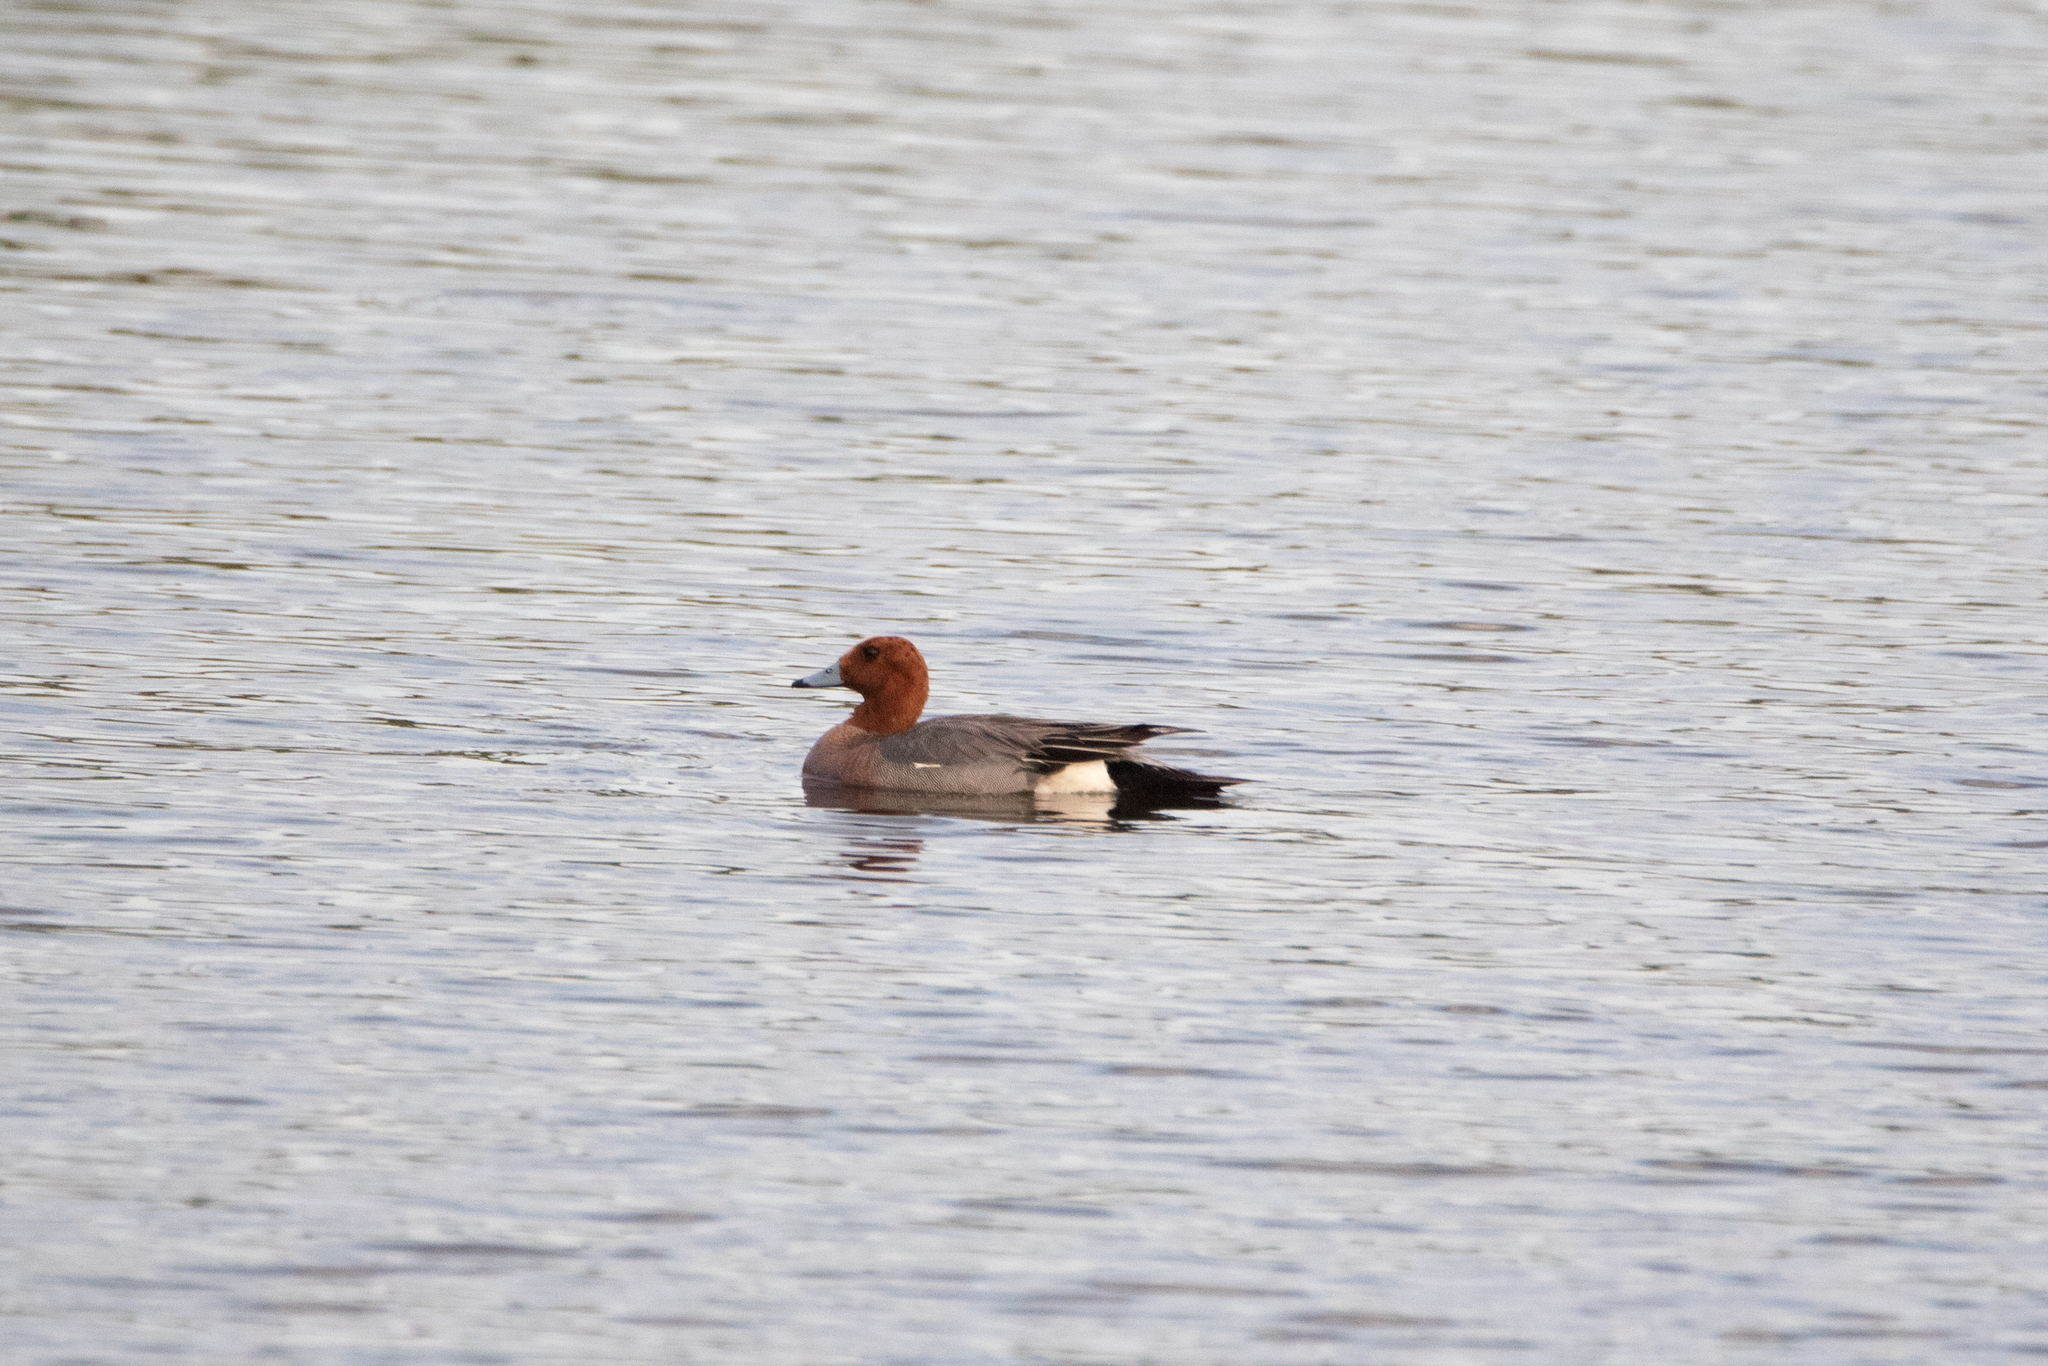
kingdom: Animalia
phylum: Chordata
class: Aves
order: Anseriformes
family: Anatidae
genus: Mareca
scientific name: Mareca penelope
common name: Eurasian wigeon
